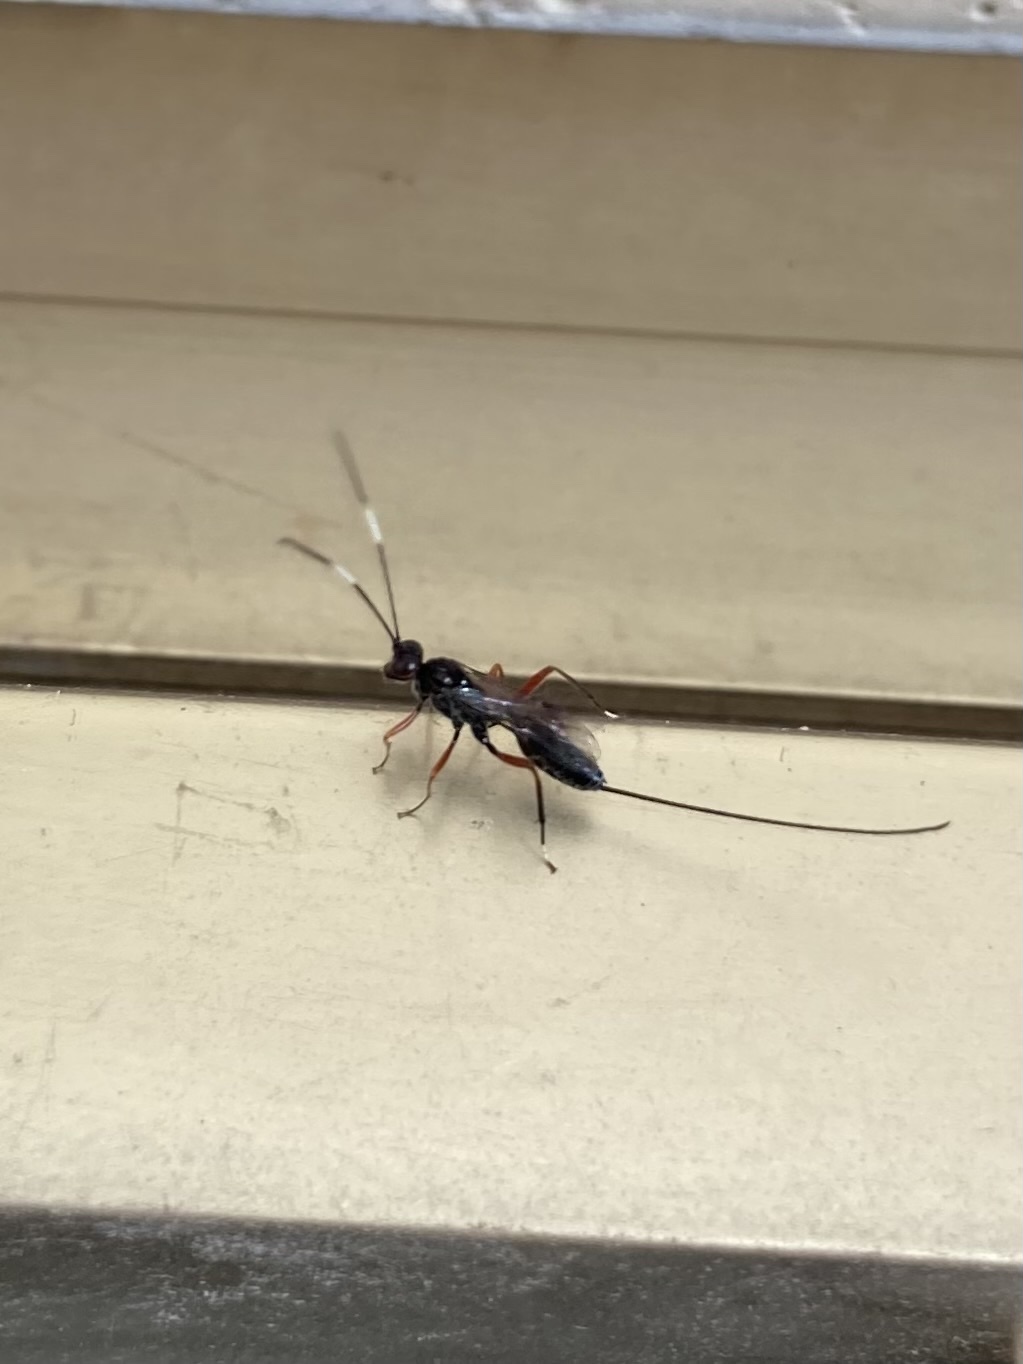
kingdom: Animalia
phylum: Arthropoda
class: Insecta
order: Hymenoptera
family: Ichneumonidae
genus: Stenarella
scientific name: Stenarella domator
